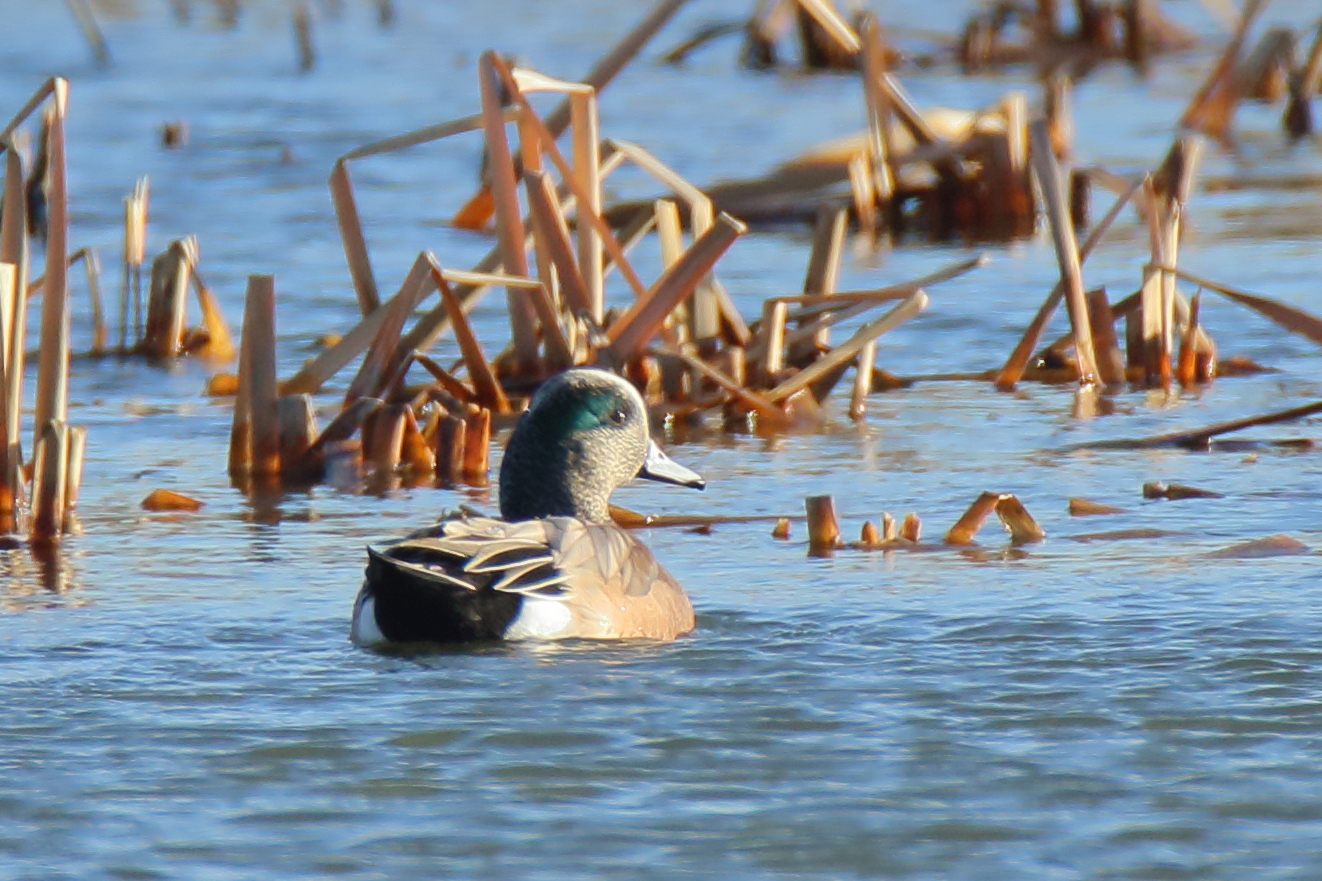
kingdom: Animalia
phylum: Chordata
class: Aves
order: Anseriformes
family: Anatidae
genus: Mareca
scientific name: Mareca americana
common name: American wigeon
